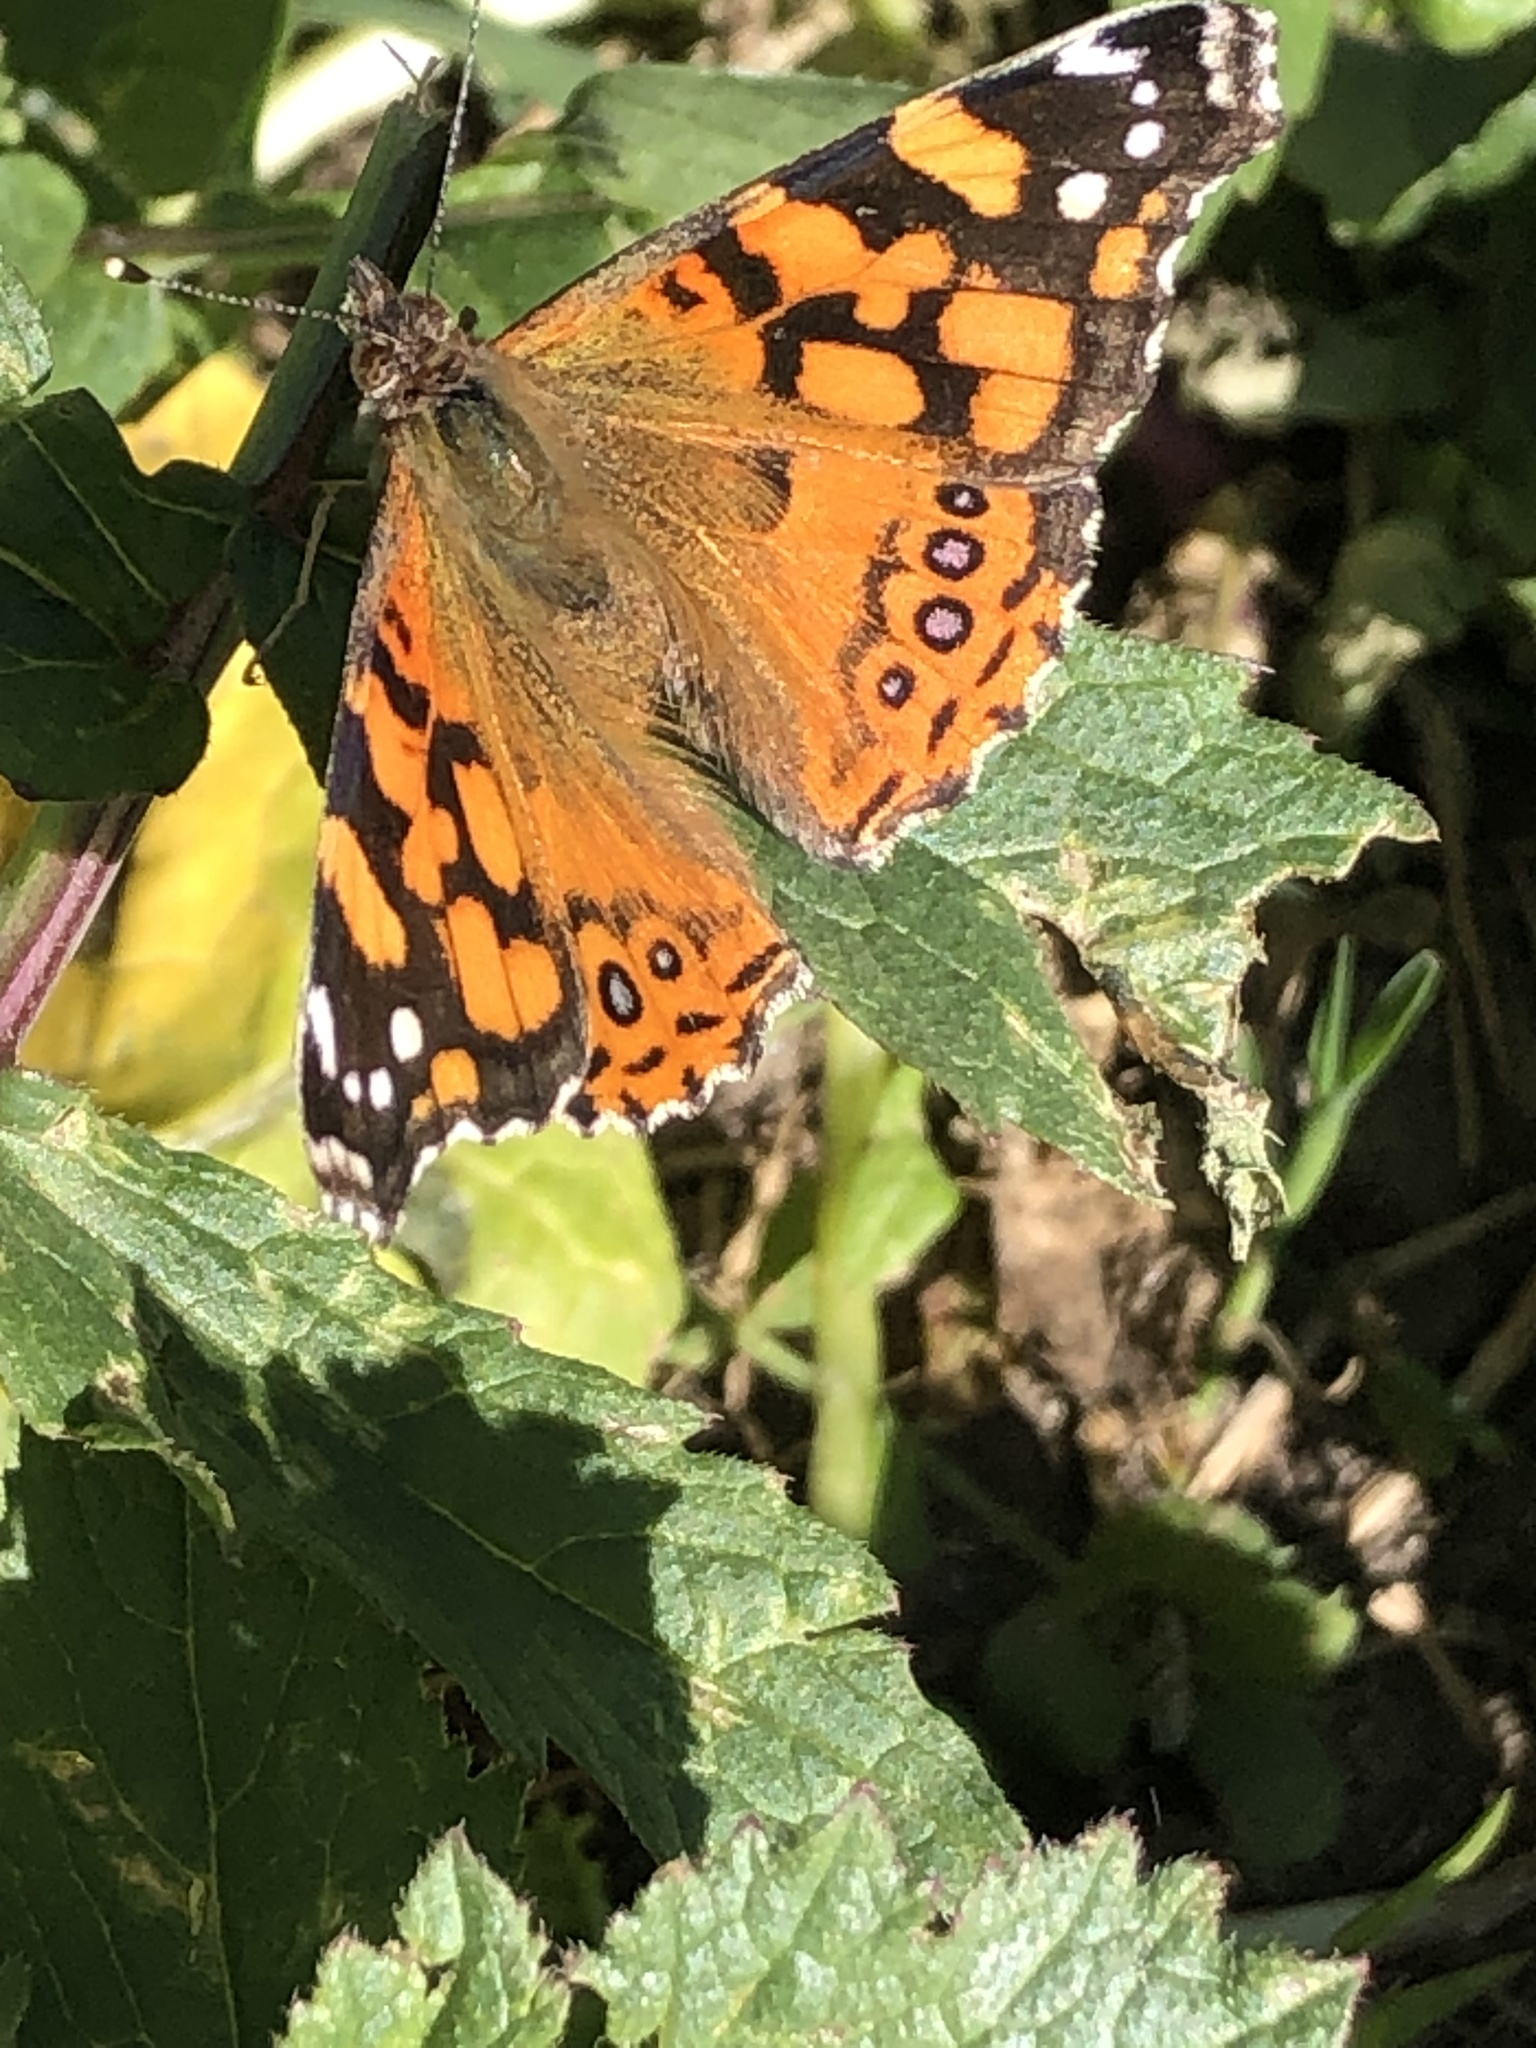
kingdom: Animalia
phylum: Arthropoda
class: Insecta
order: Lepidoptera
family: Nymphalidae
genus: Vanessa
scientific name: Vanessa annabella
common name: West coast lady
